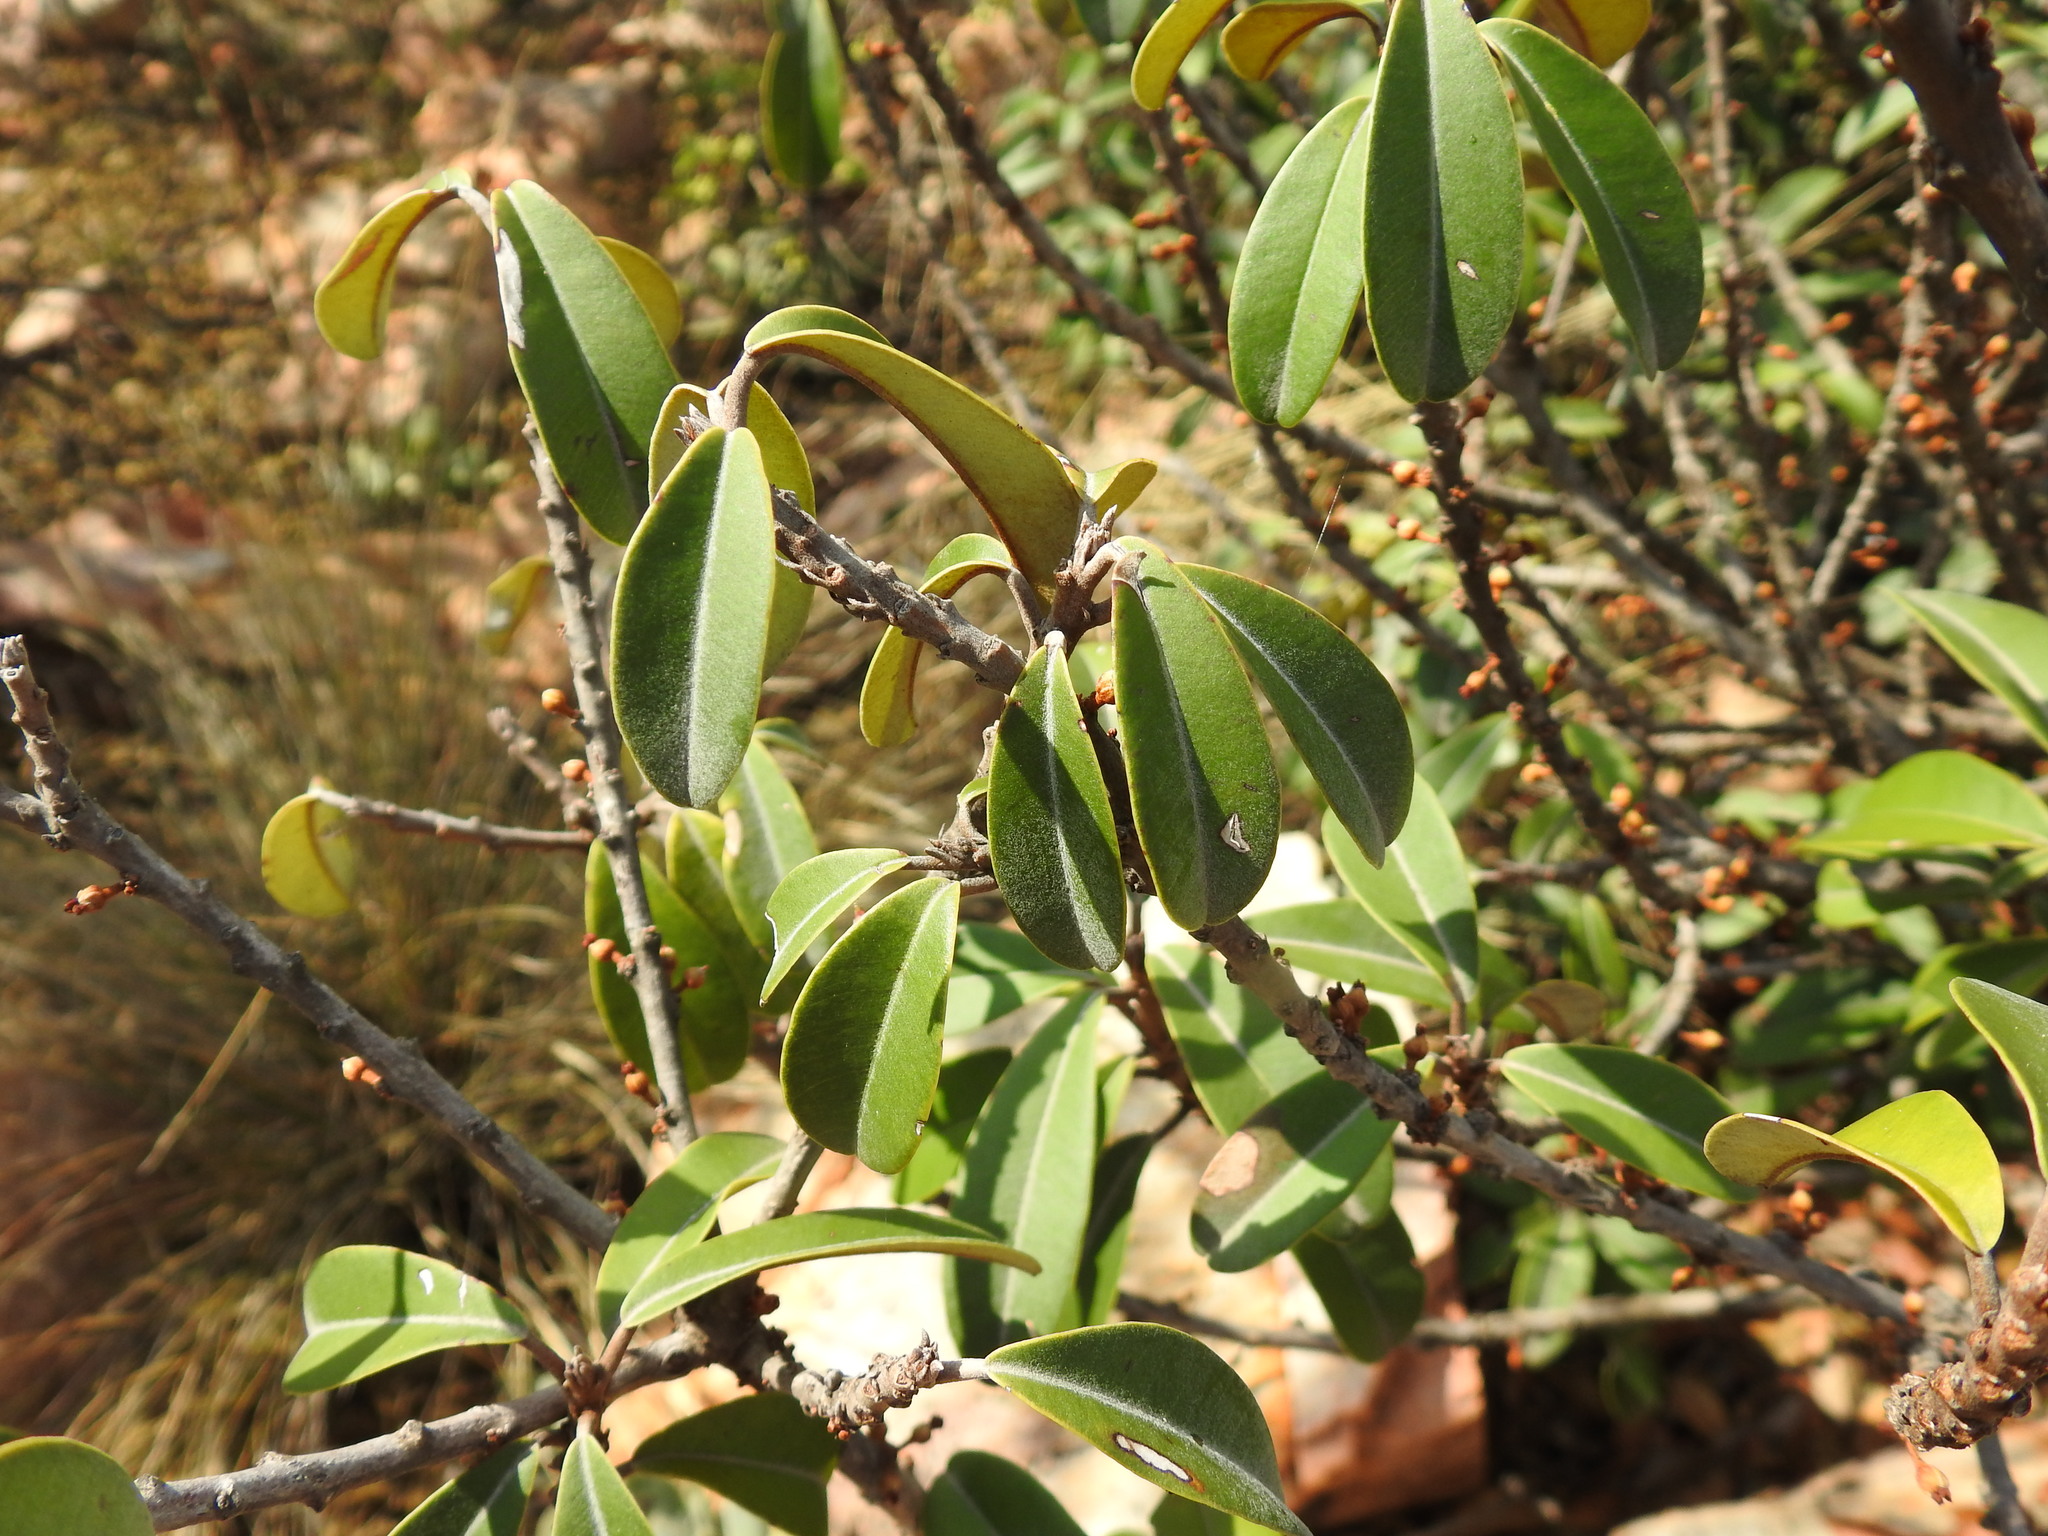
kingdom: Plantae
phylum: Tracheophyta
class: Magnoliopsida
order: Ericales
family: Sapotaceae
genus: Englerophytum
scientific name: Englerophytum magalismontanum
